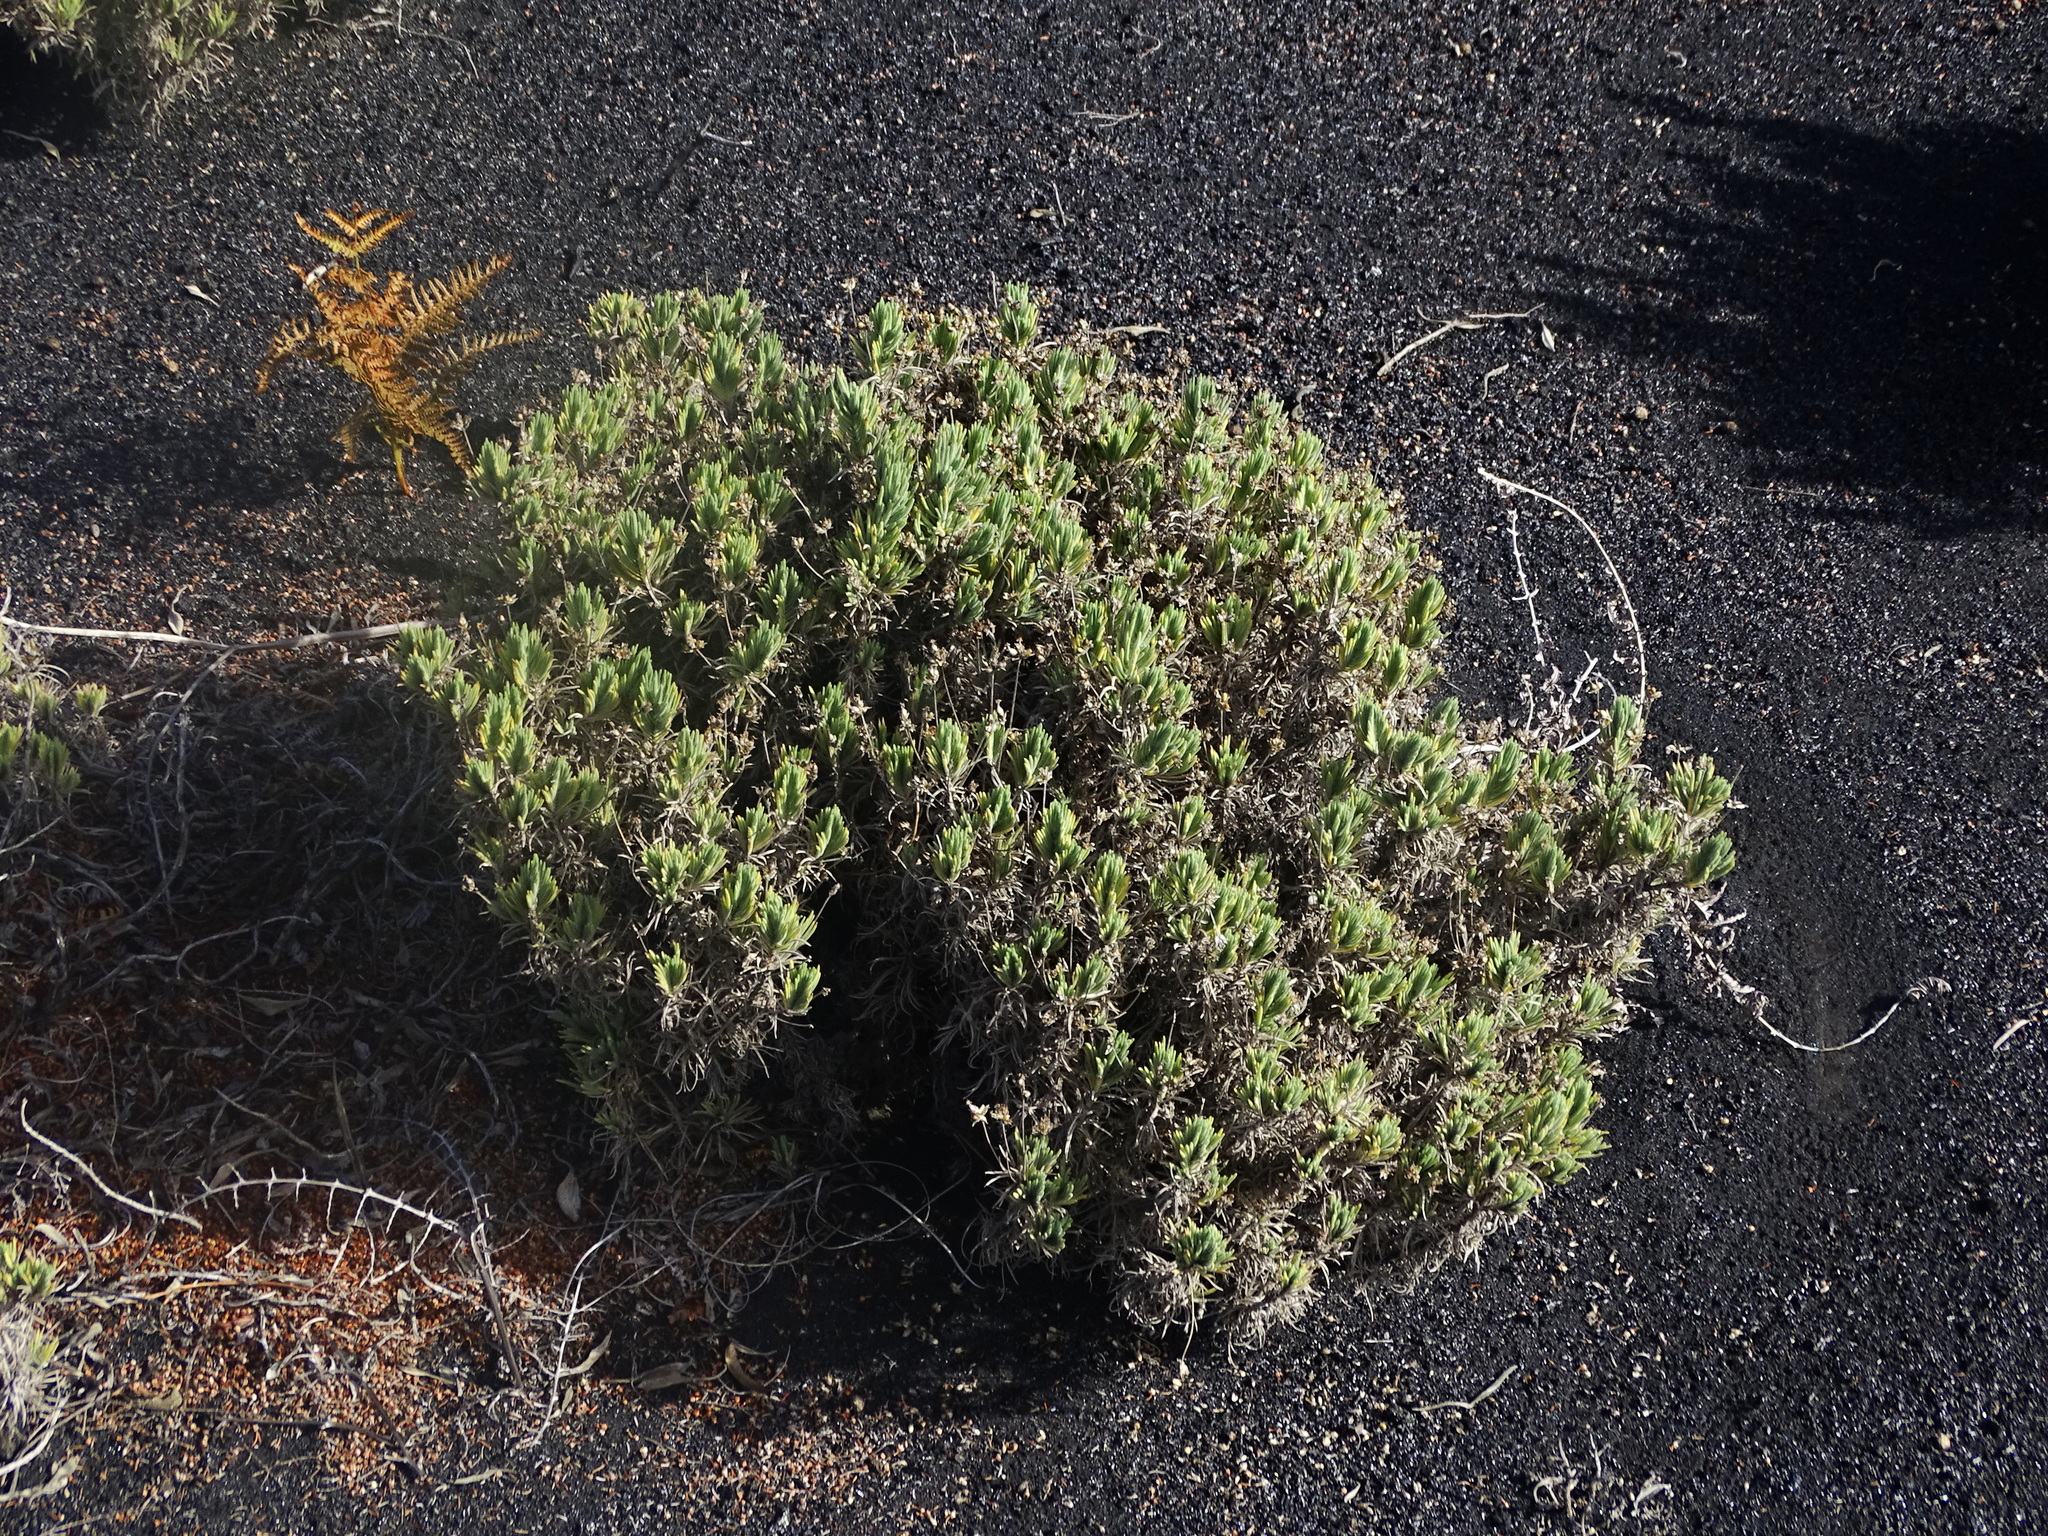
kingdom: Plantae
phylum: Tracheophyta
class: Magnoliopsida
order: Lamiales
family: Plantaginaceae
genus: Plantago
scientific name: Plantago webbii
